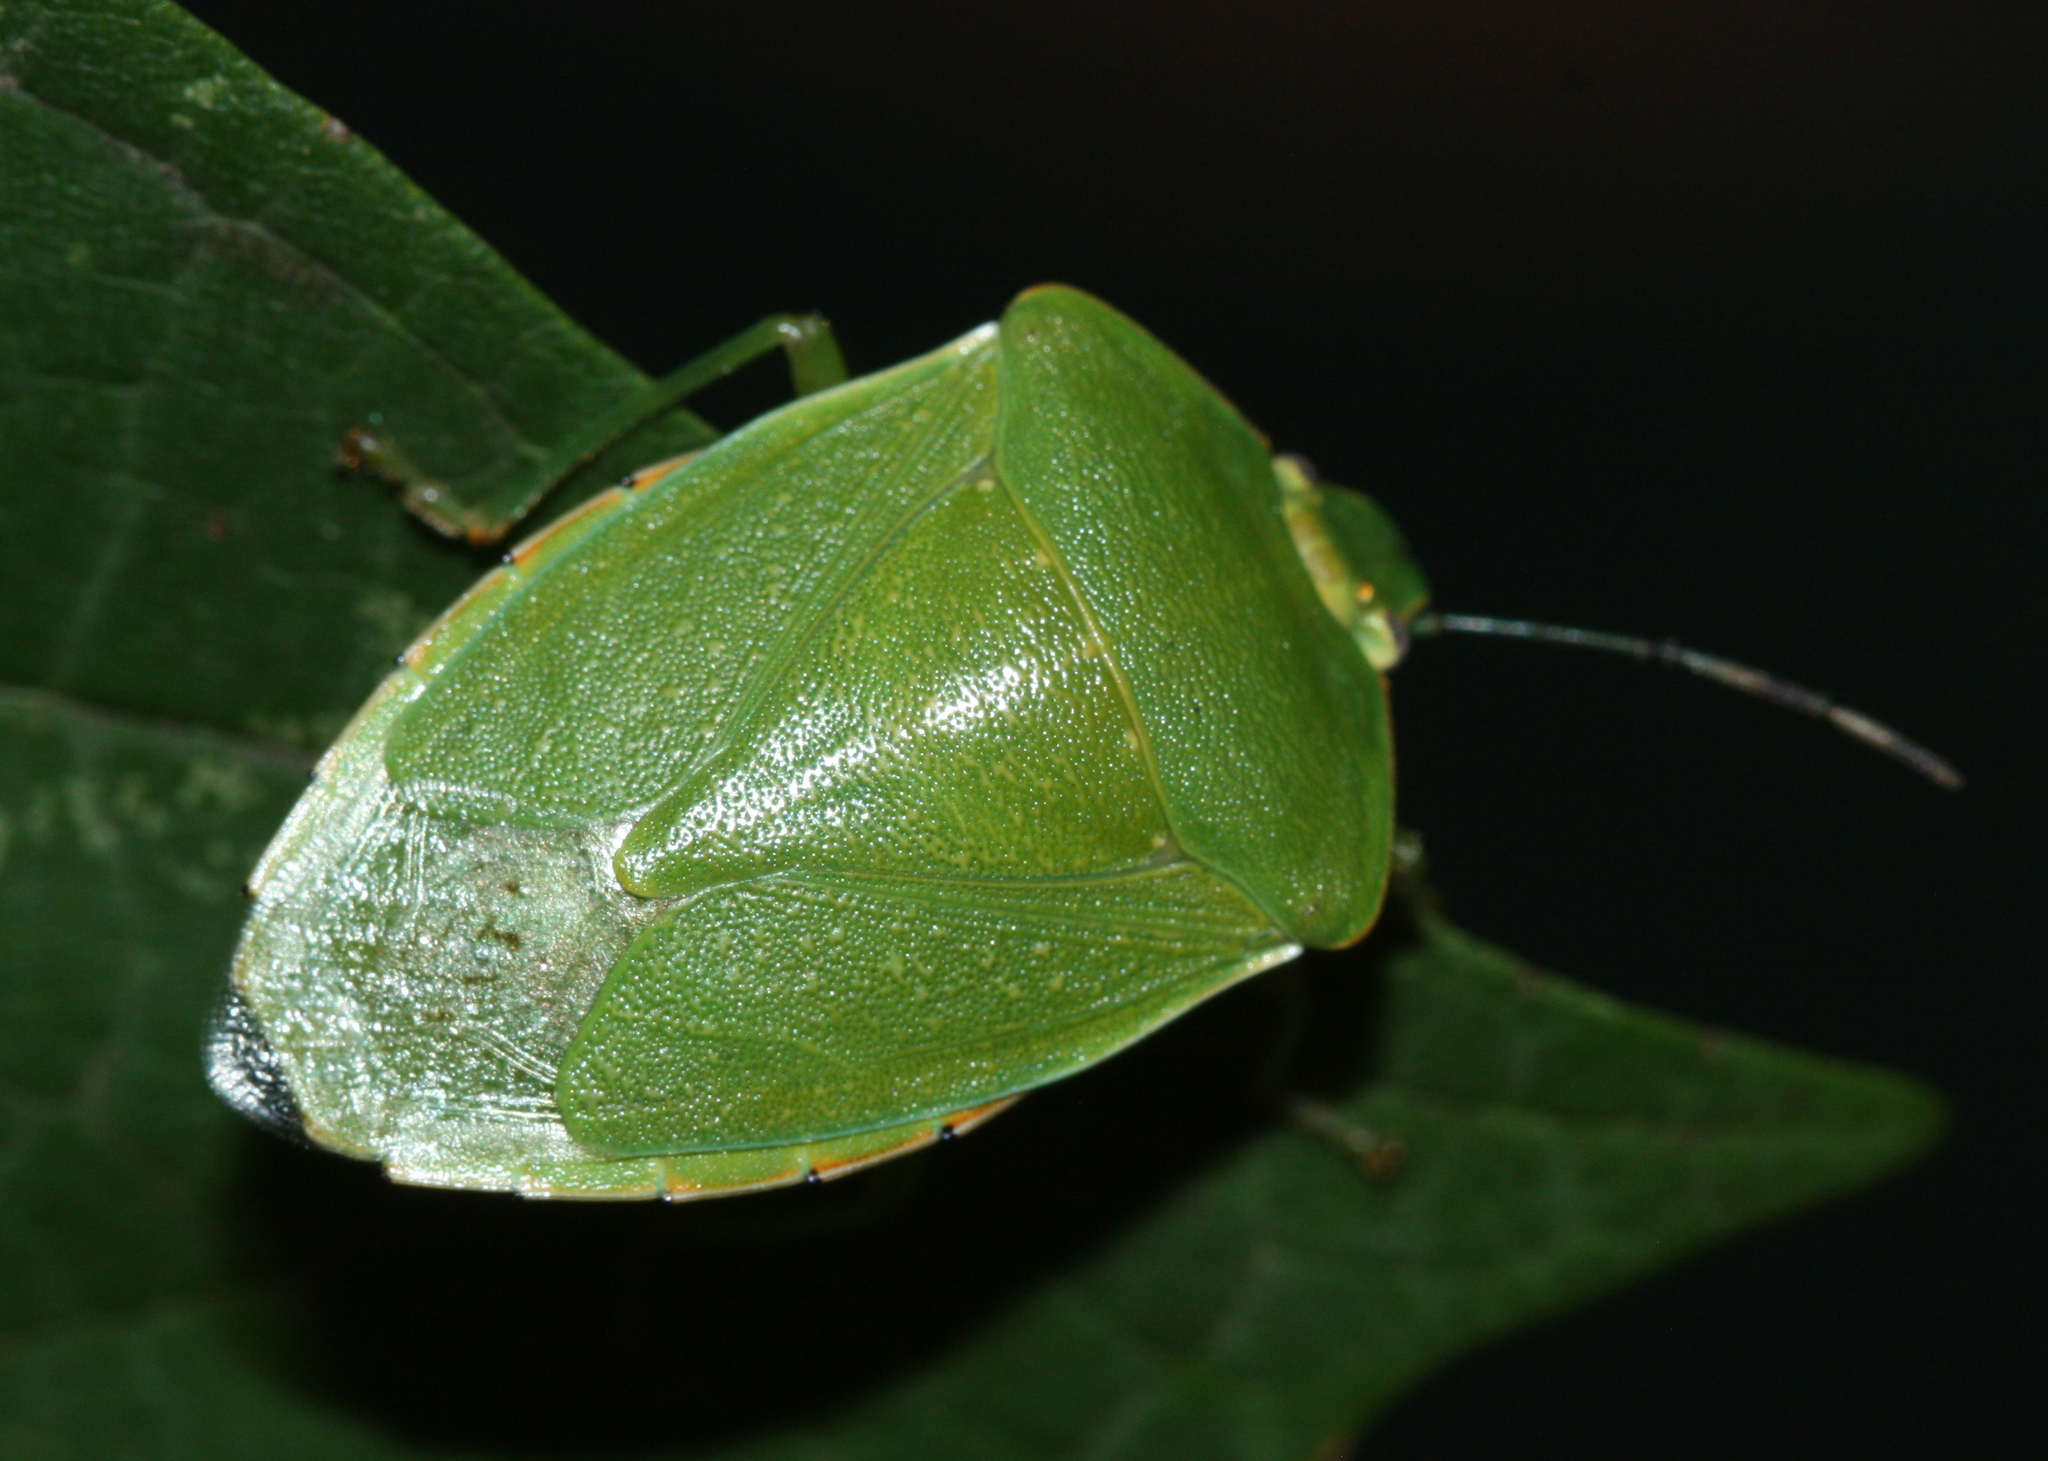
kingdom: Animalia
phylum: Arthropoda
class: Insecta
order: Hemiptera
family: Pentatomidae
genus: Chinavia
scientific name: Chinavia hilaris
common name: Green stink bug
